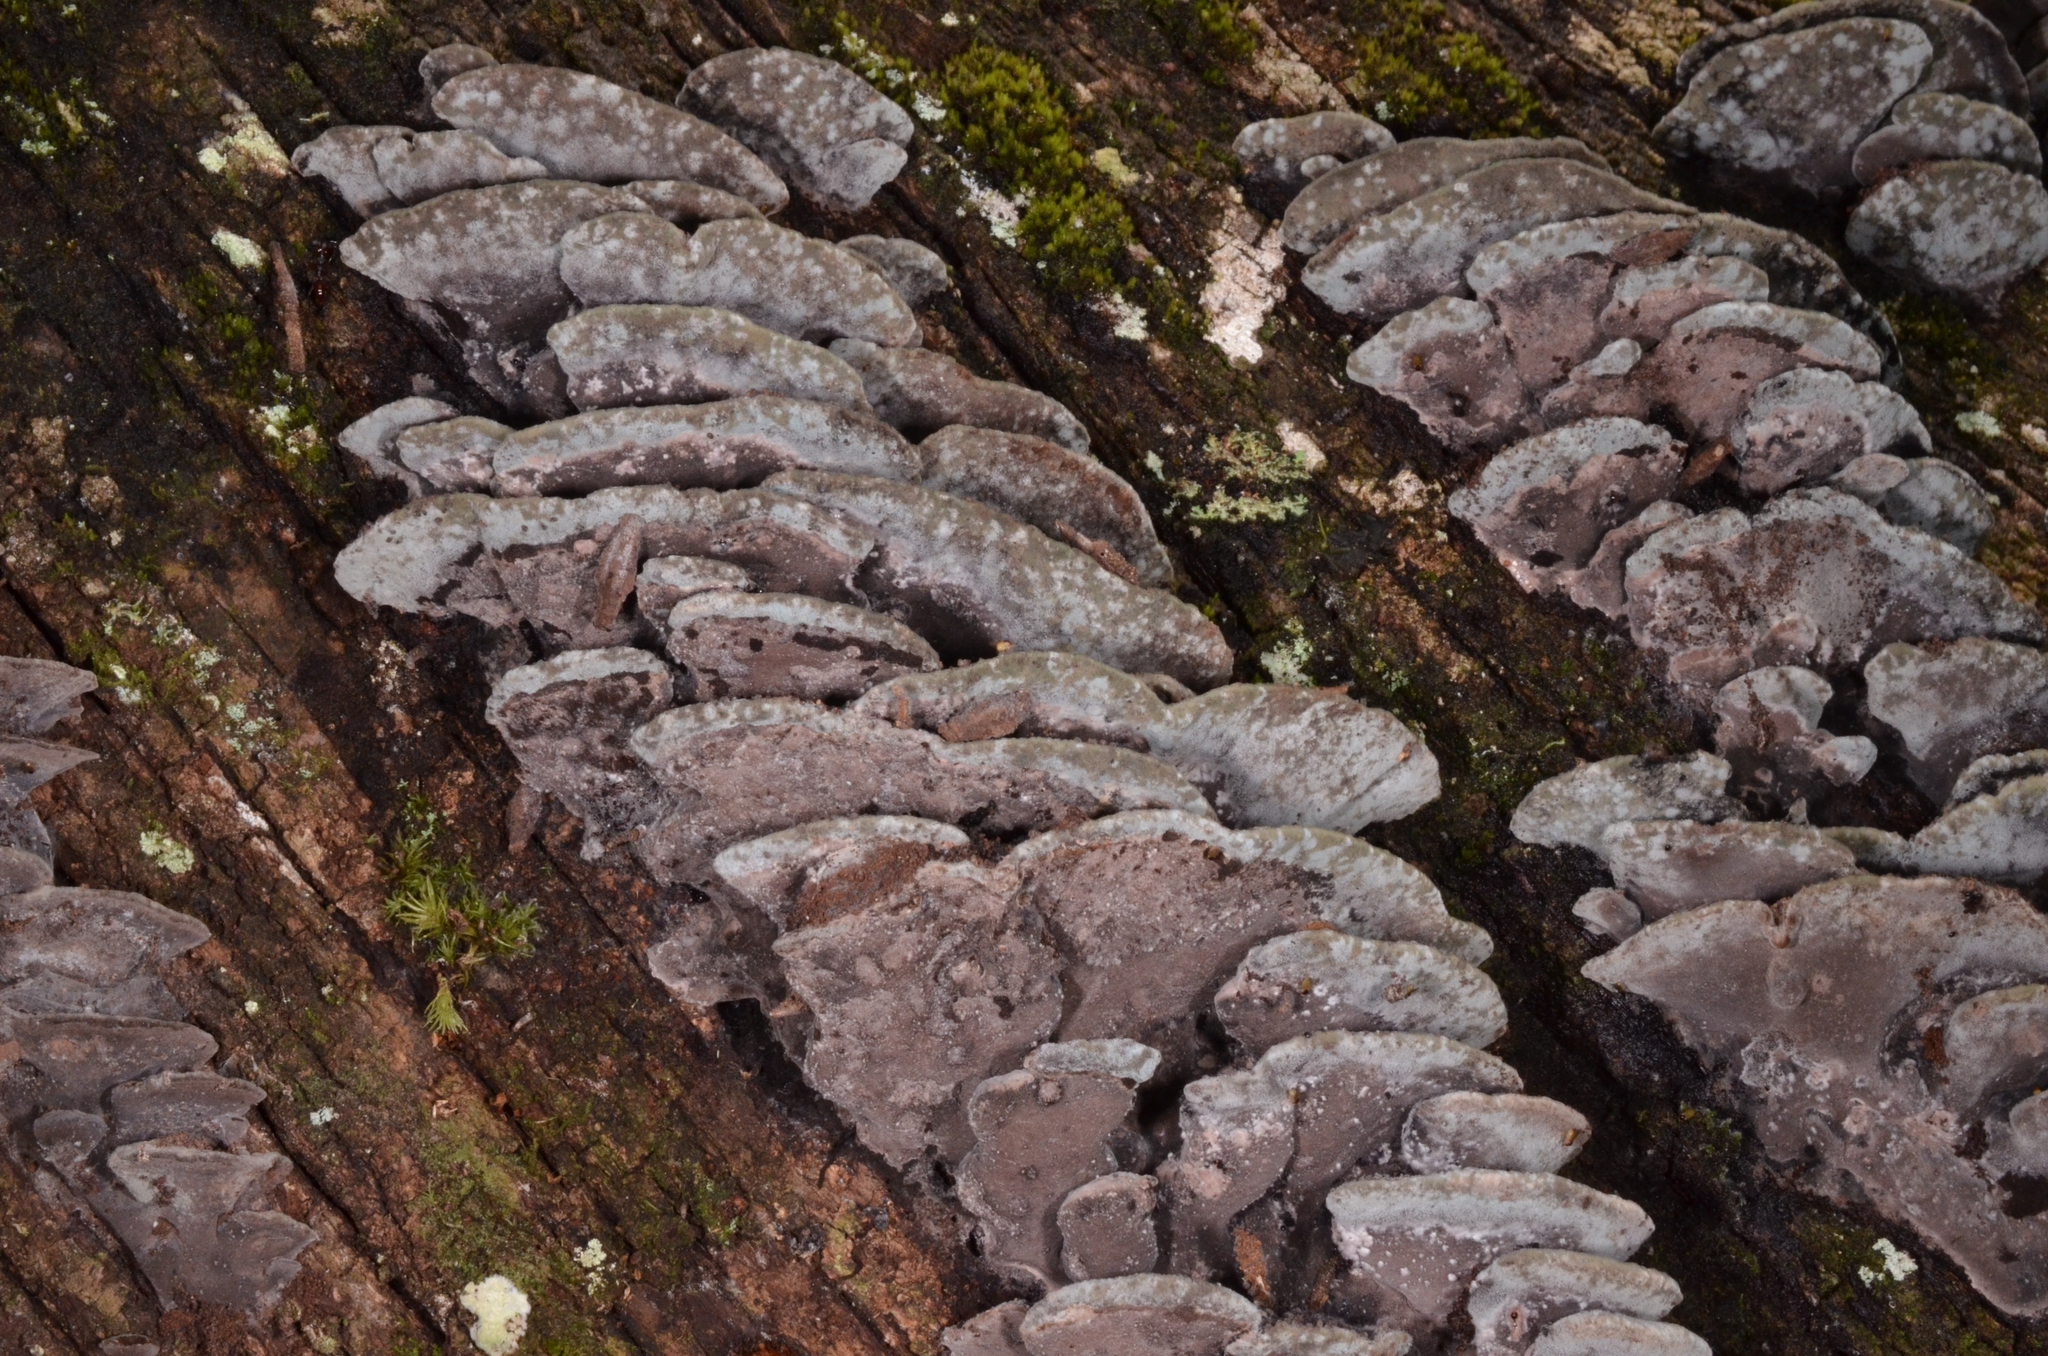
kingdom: Fungi
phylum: Basidiomycota
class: Agaricomycetes
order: Polyporales
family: Steccherinaceae
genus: Nigroporus
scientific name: Nigroporus durus
